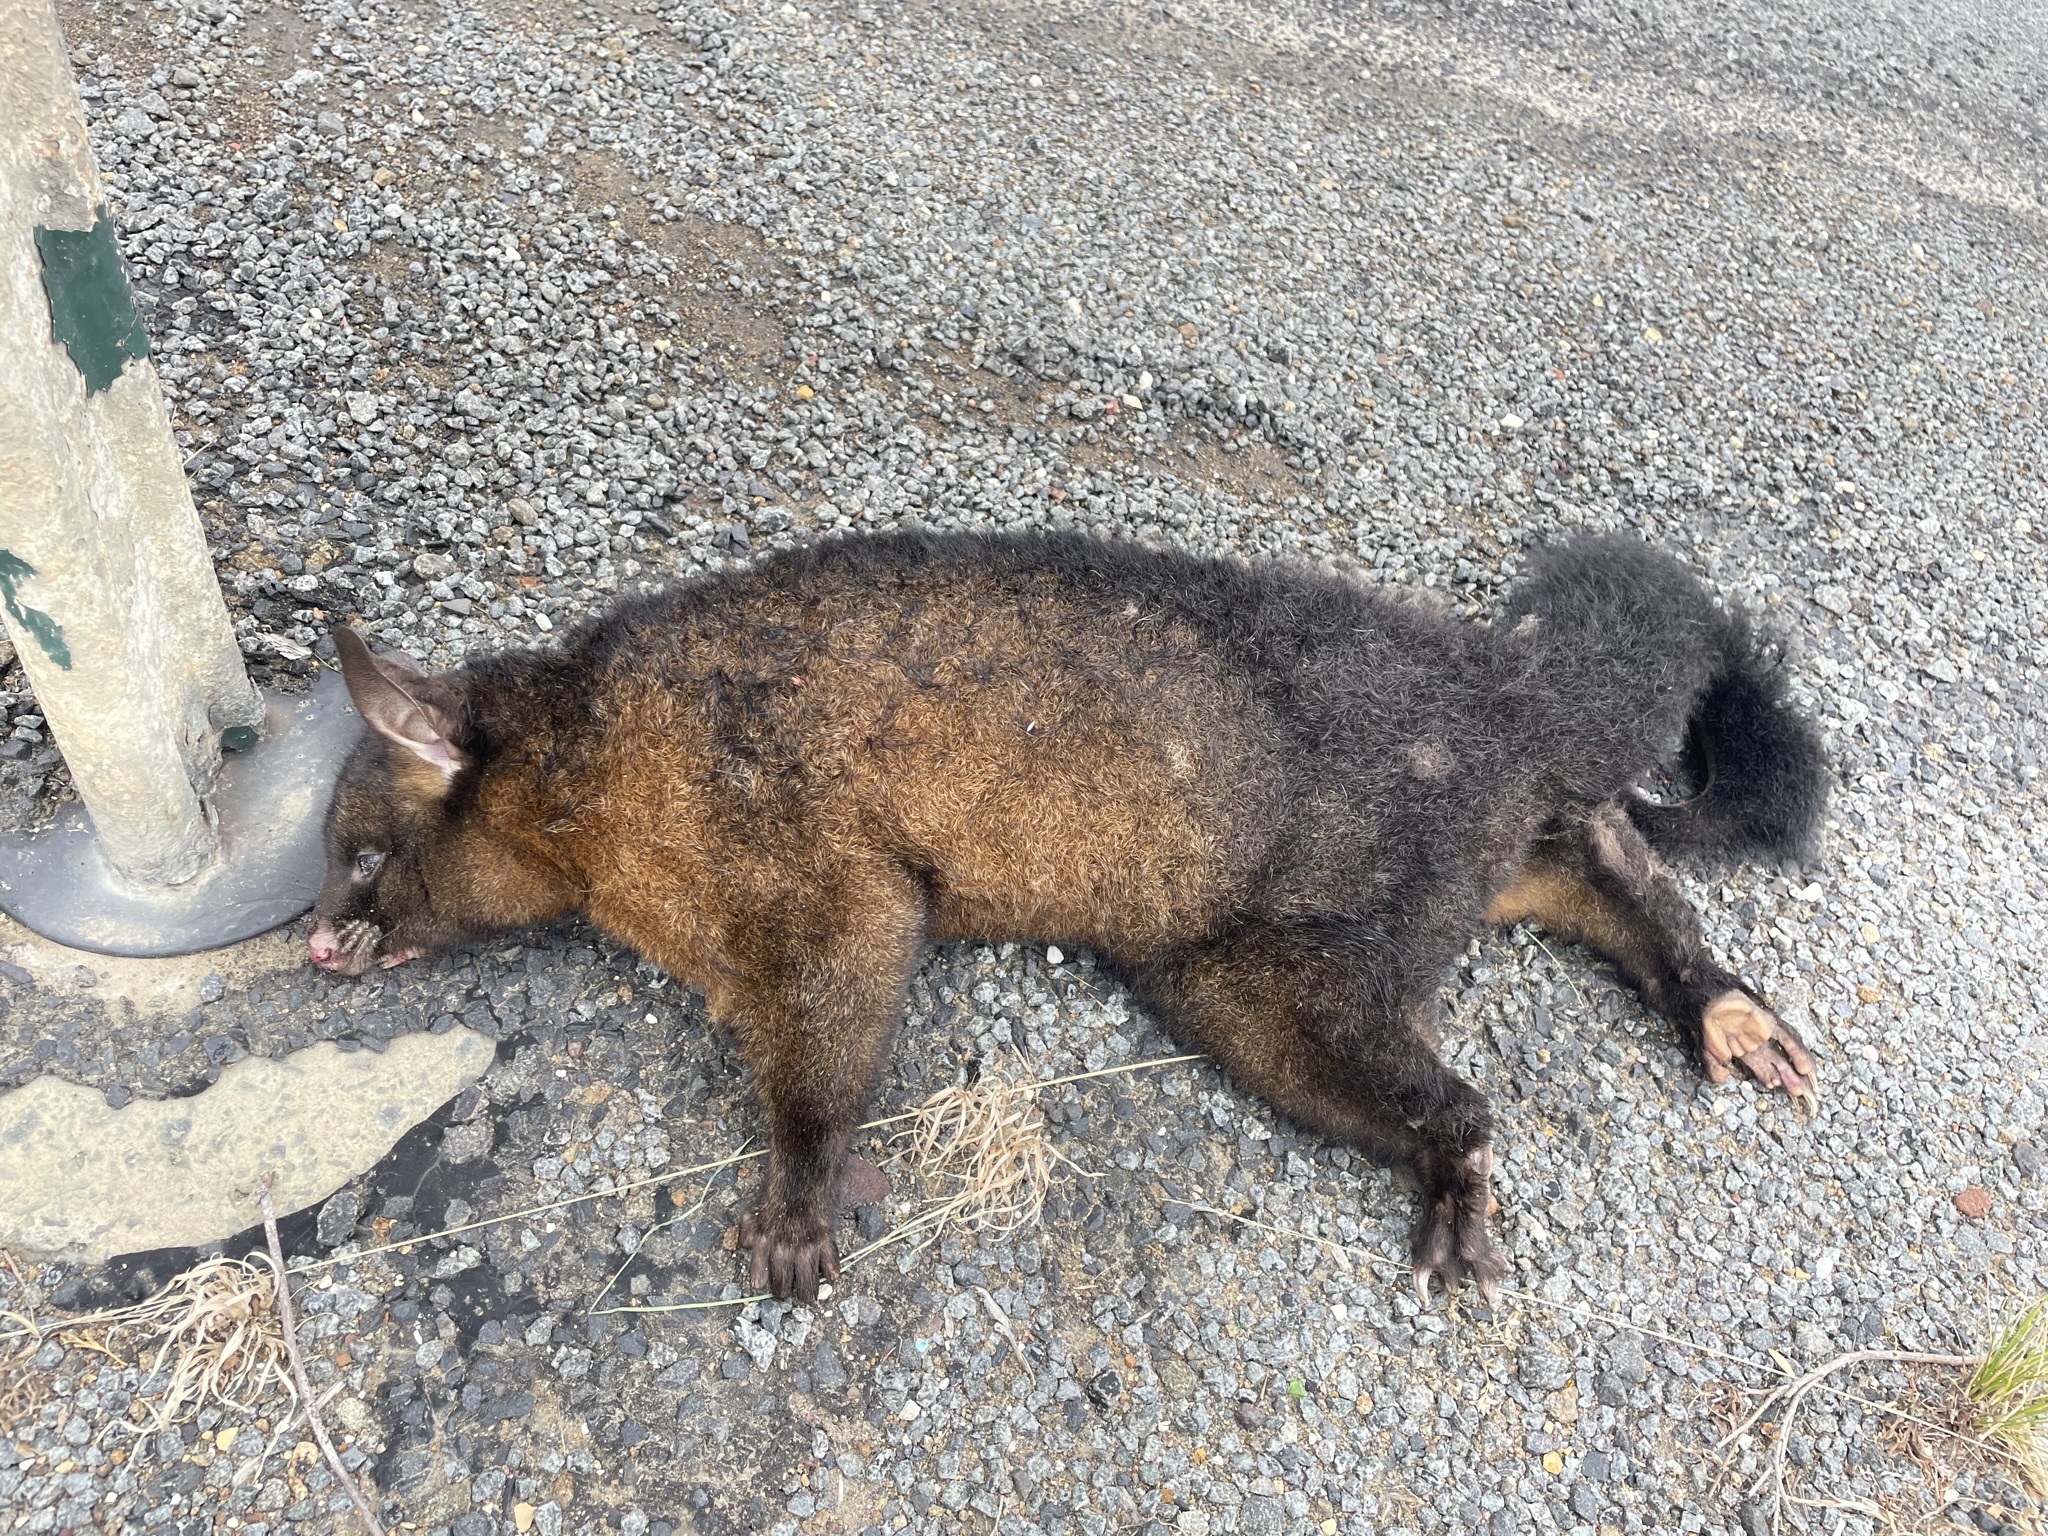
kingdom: Animalia
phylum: Chordata
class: Mammalia
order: Diprotodontia
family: Phalangeridae
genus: Trichosurus
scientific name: Trichosurus vulpecula
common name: Common brushtail
